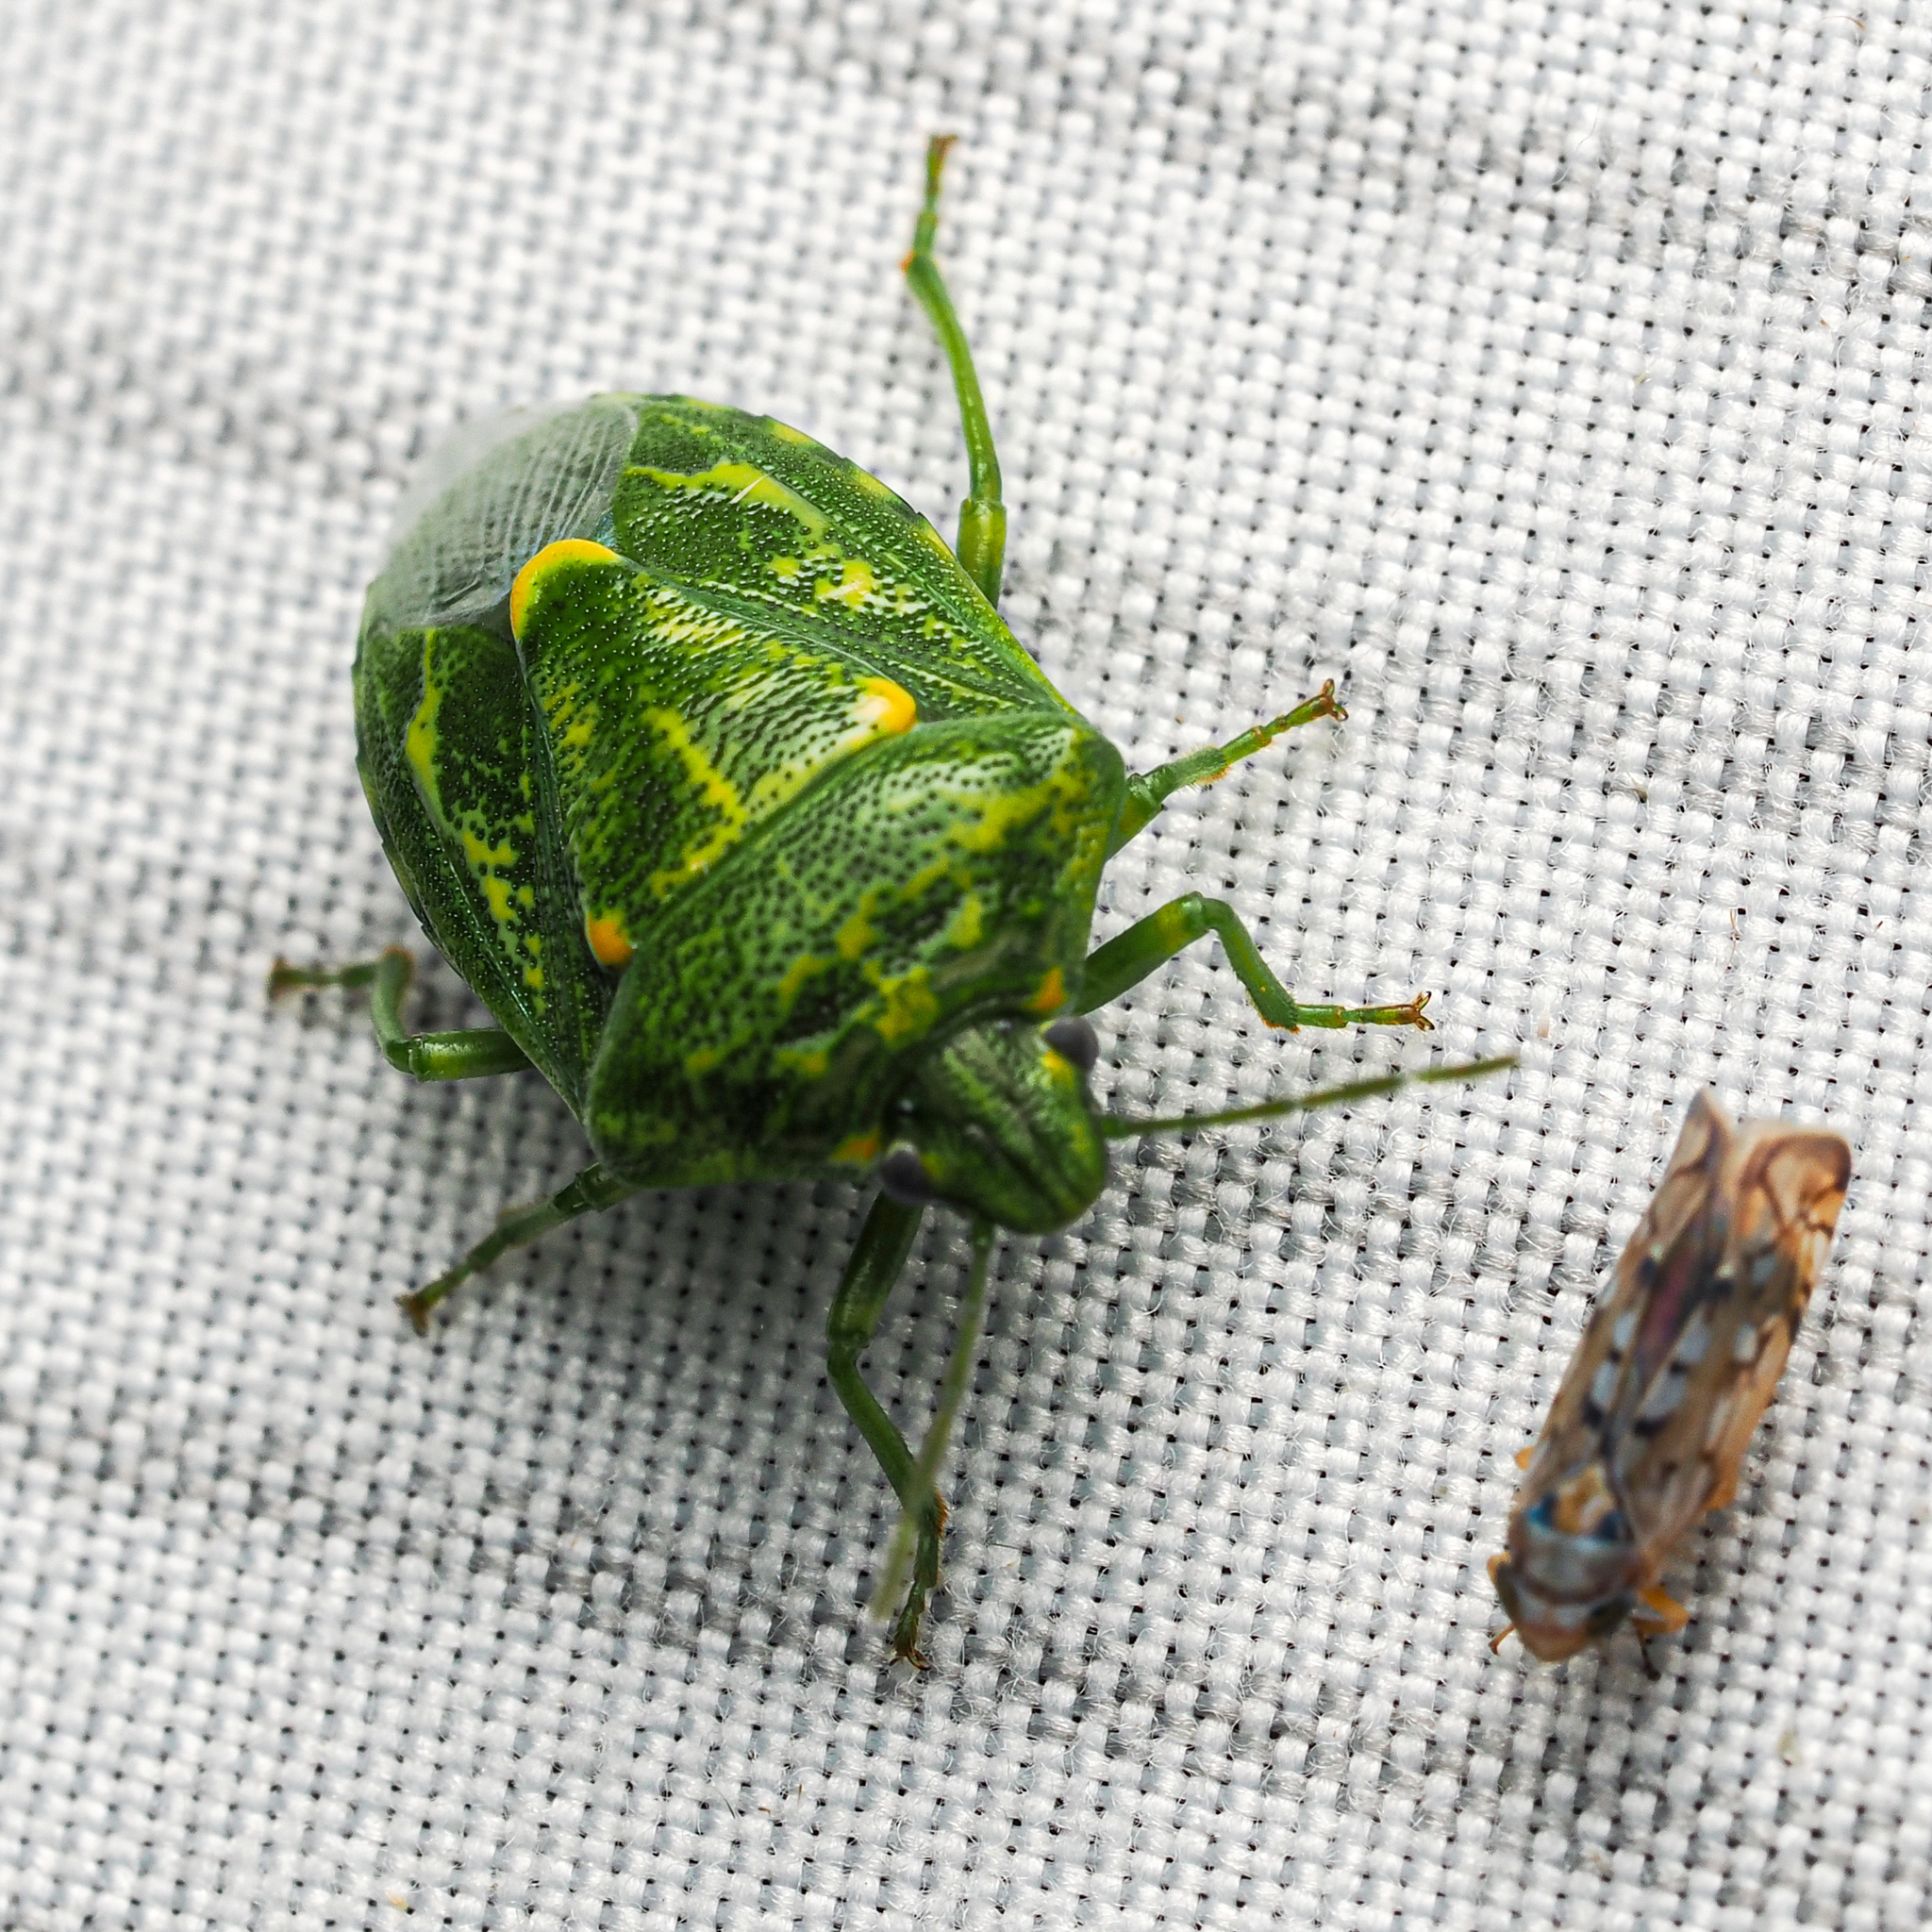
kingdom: Animalia
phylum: Arthropoda
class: Insecta
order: Hemiptera
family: Pentatomidae
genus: Banasa
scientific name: Banasa euchlora
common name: Cedar berry bug
